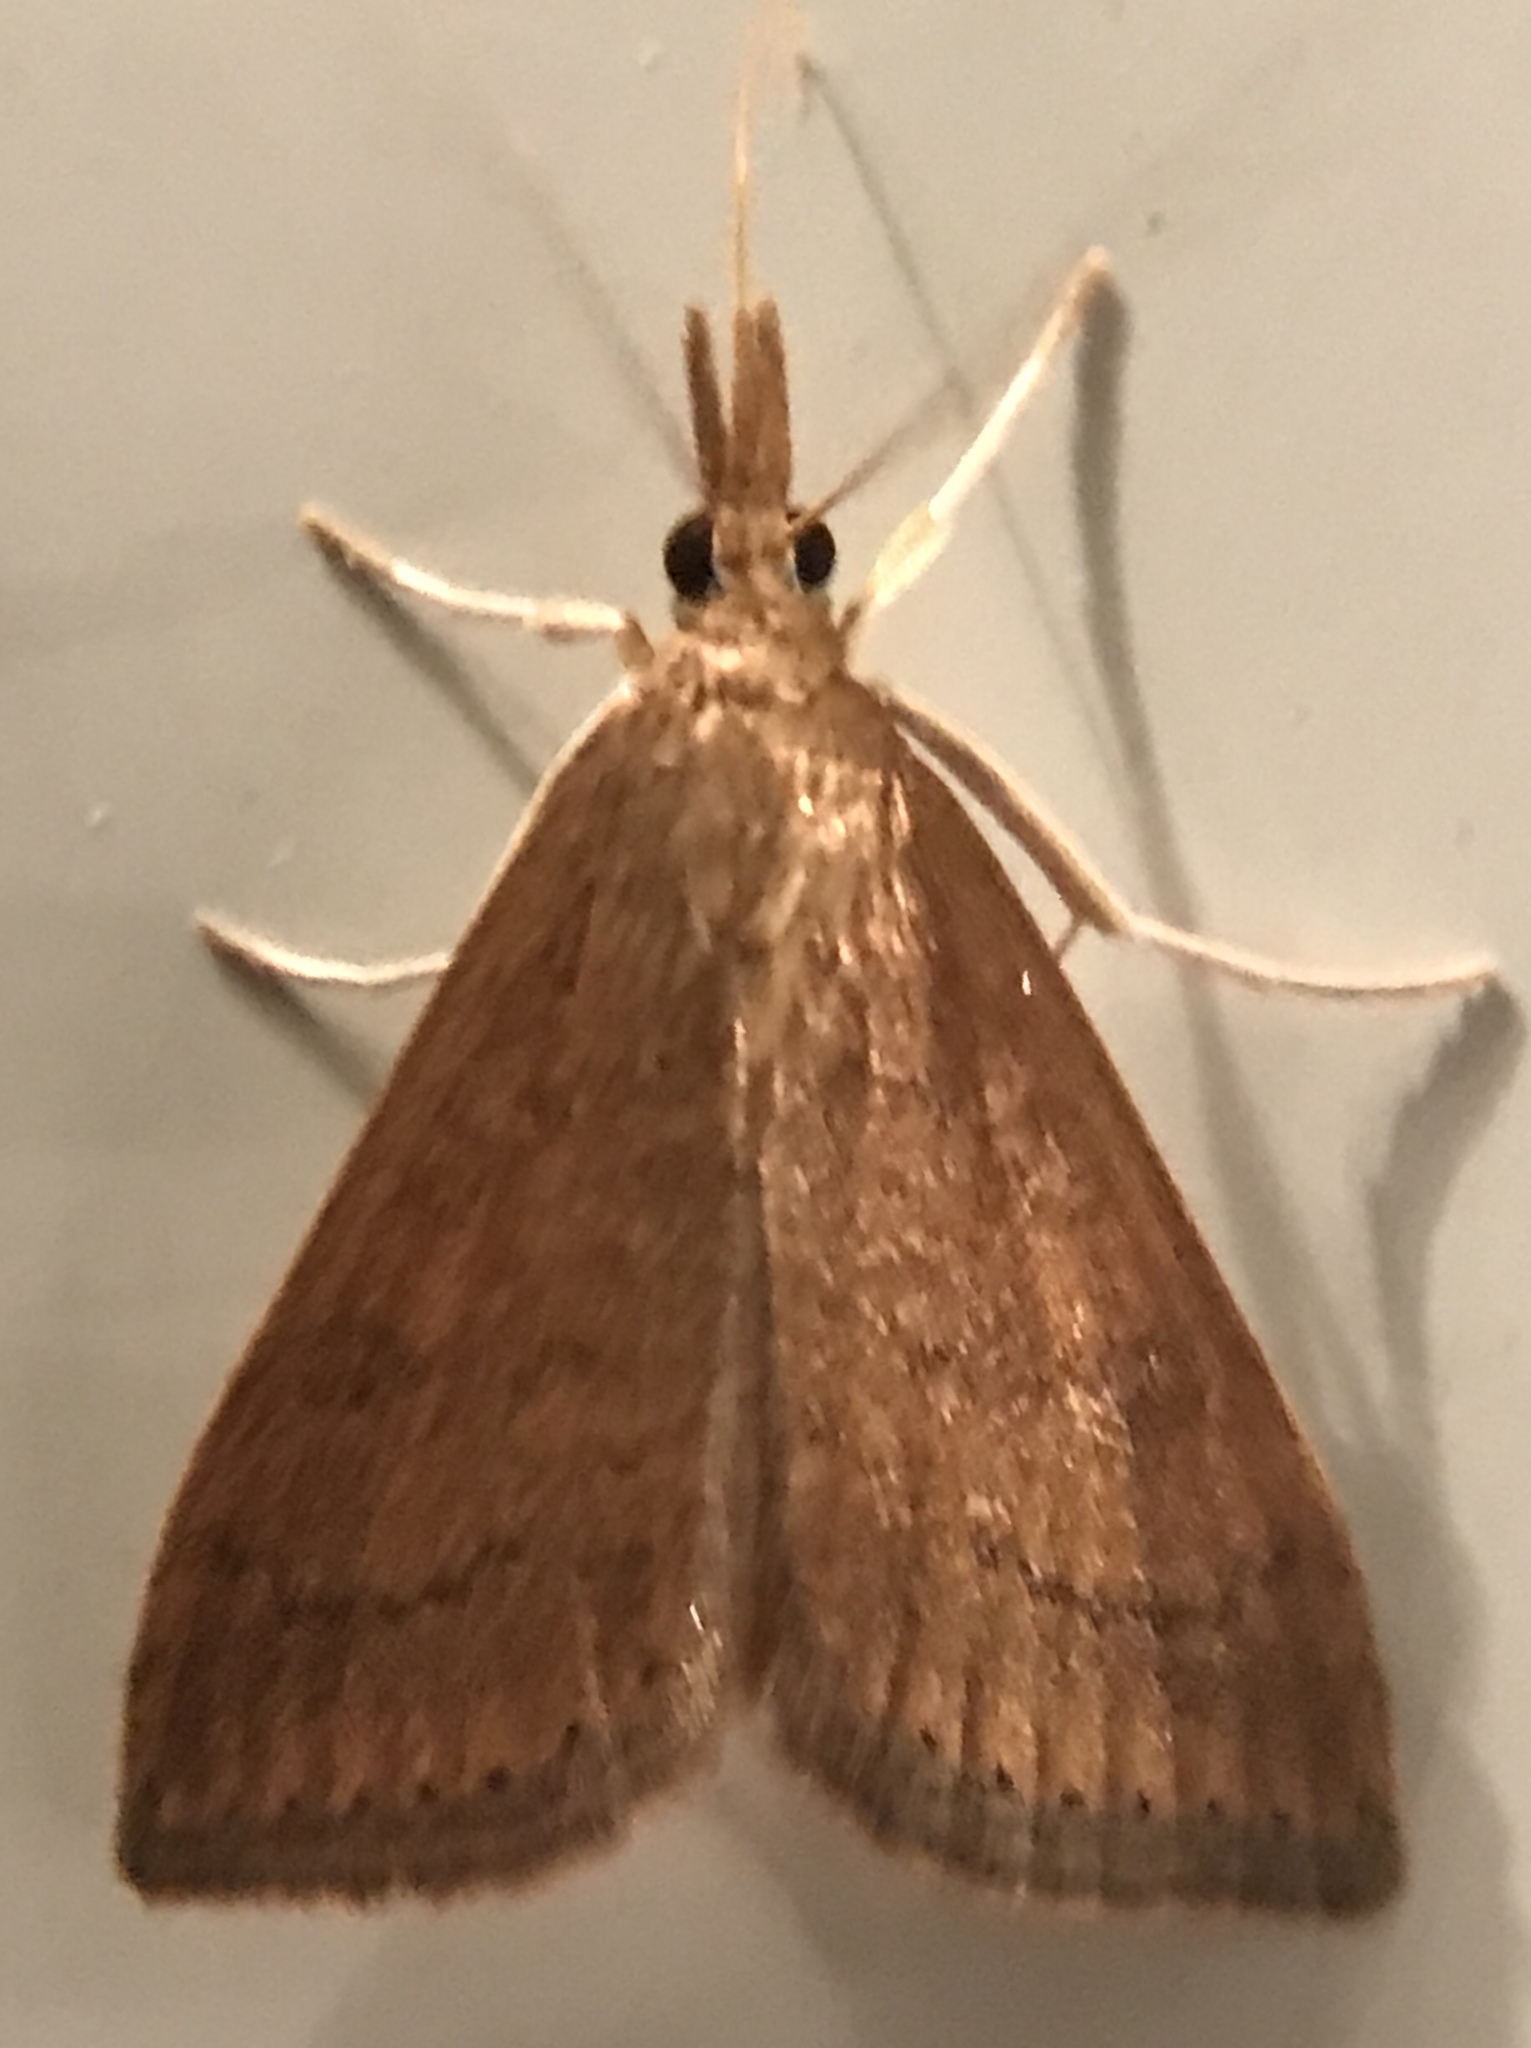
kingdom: Animalia
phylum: Arthropoda
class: Insecta
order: Lepidoptera
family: Crambidae
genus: Udea
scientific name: Udea rubigalis
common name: Celery leaftier moth
